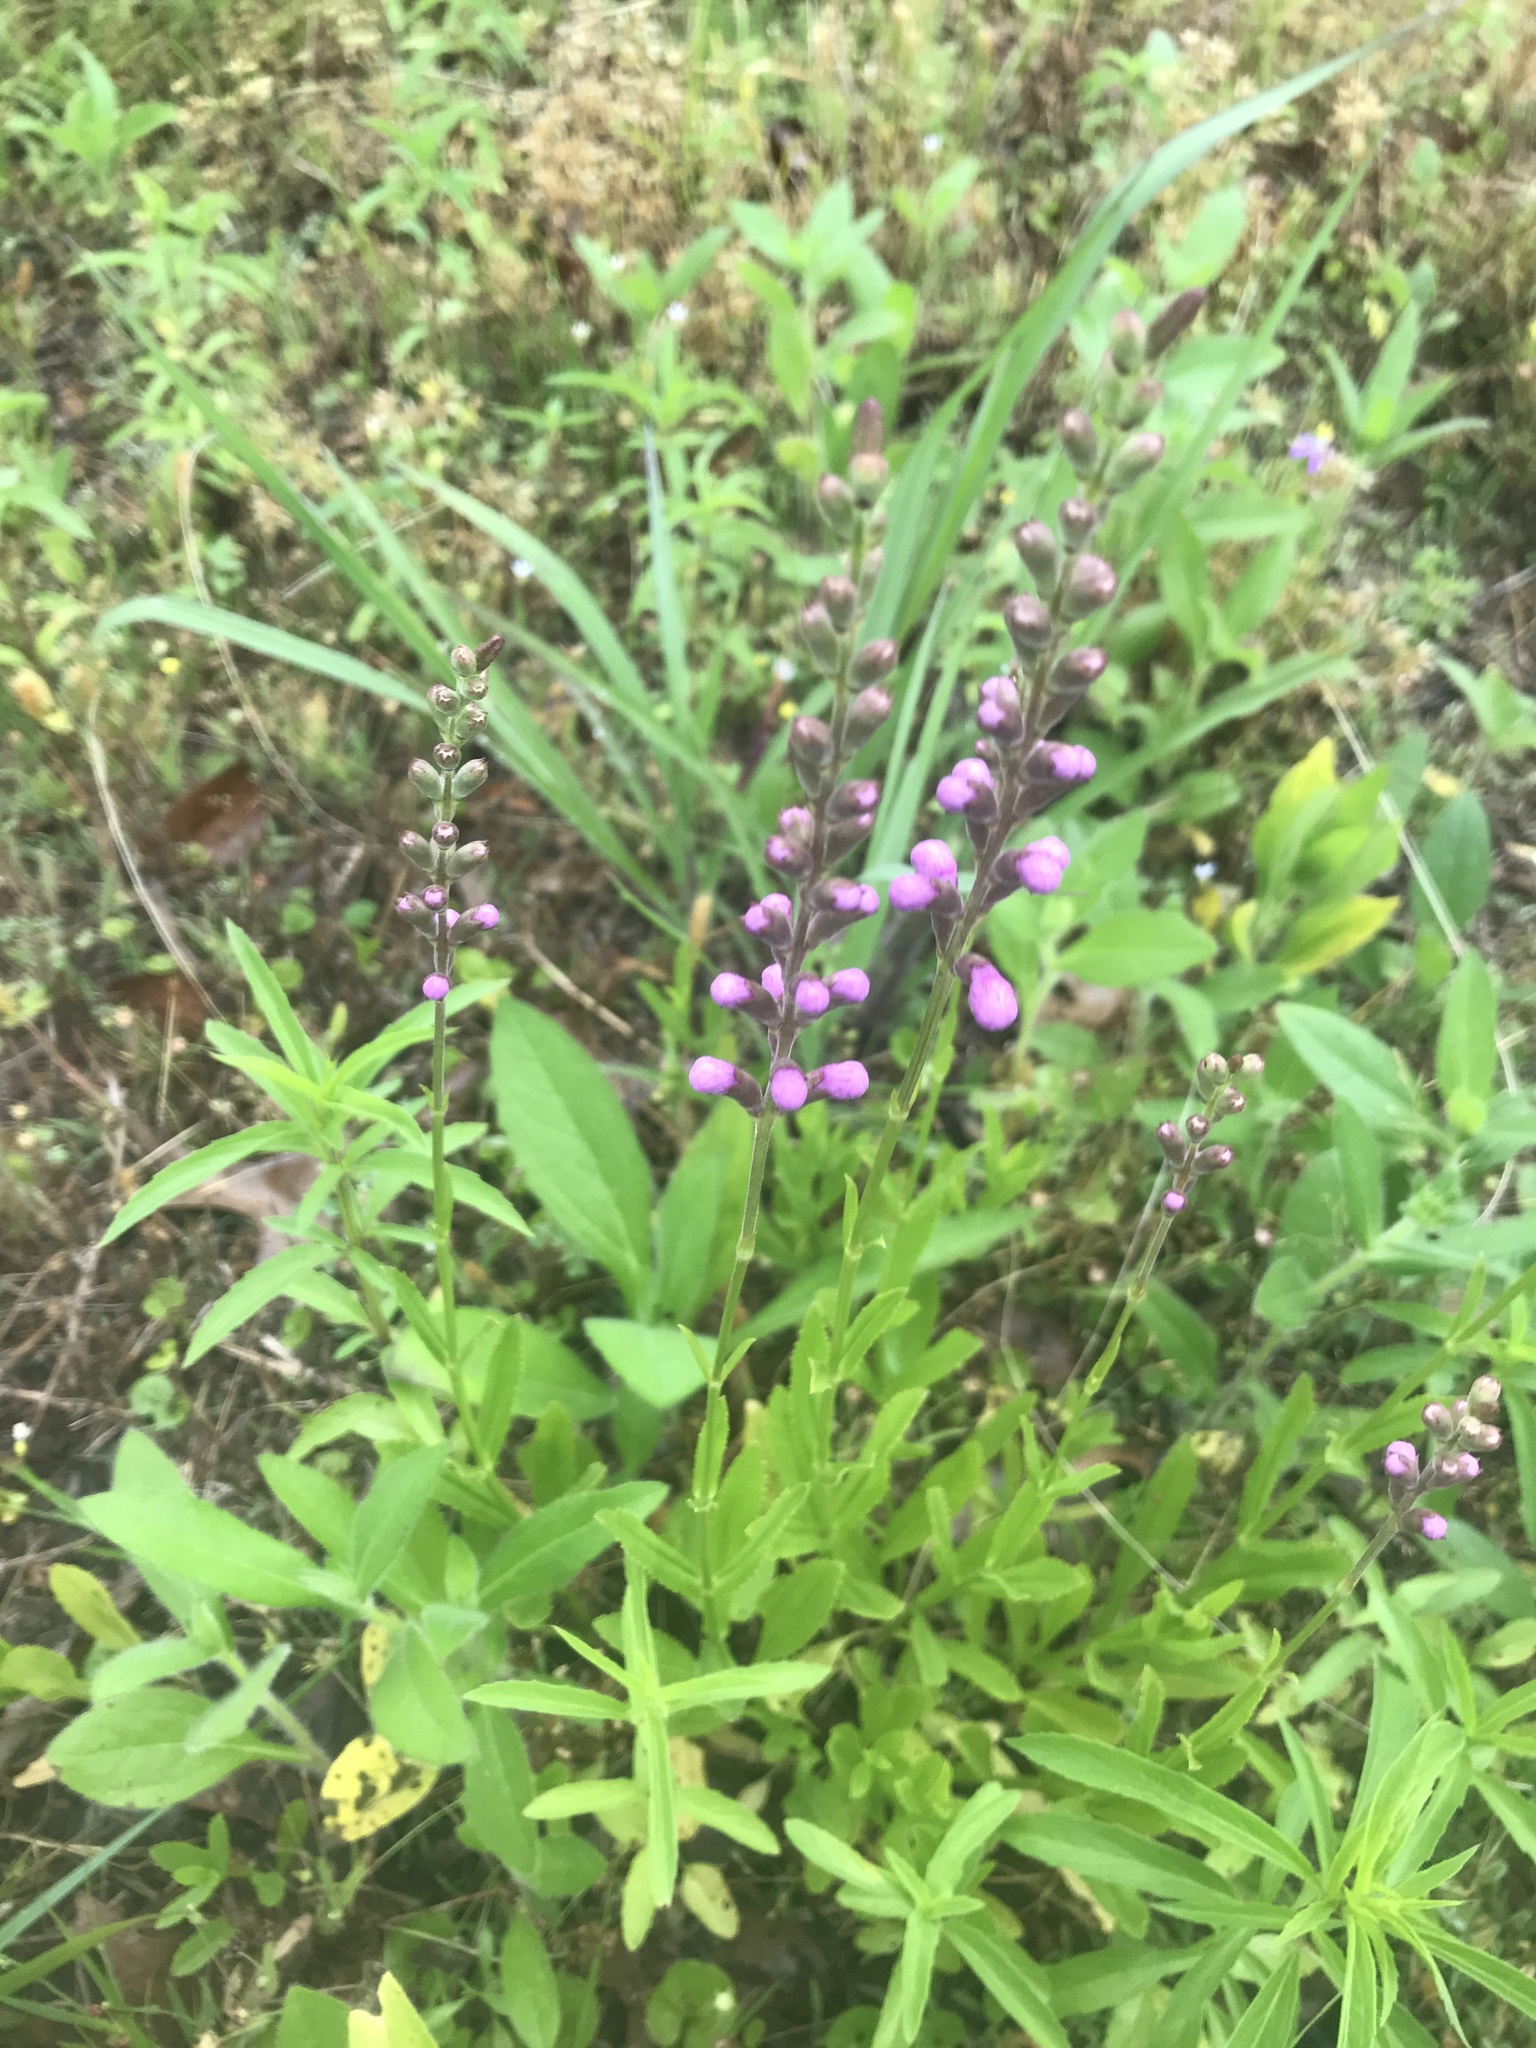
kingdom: Plantae
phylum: Tracheophyta
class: Magnoliopsida
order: Lamiales
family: Lamiaceae
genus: Warnockia
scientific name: Warnockia scutellarioides
